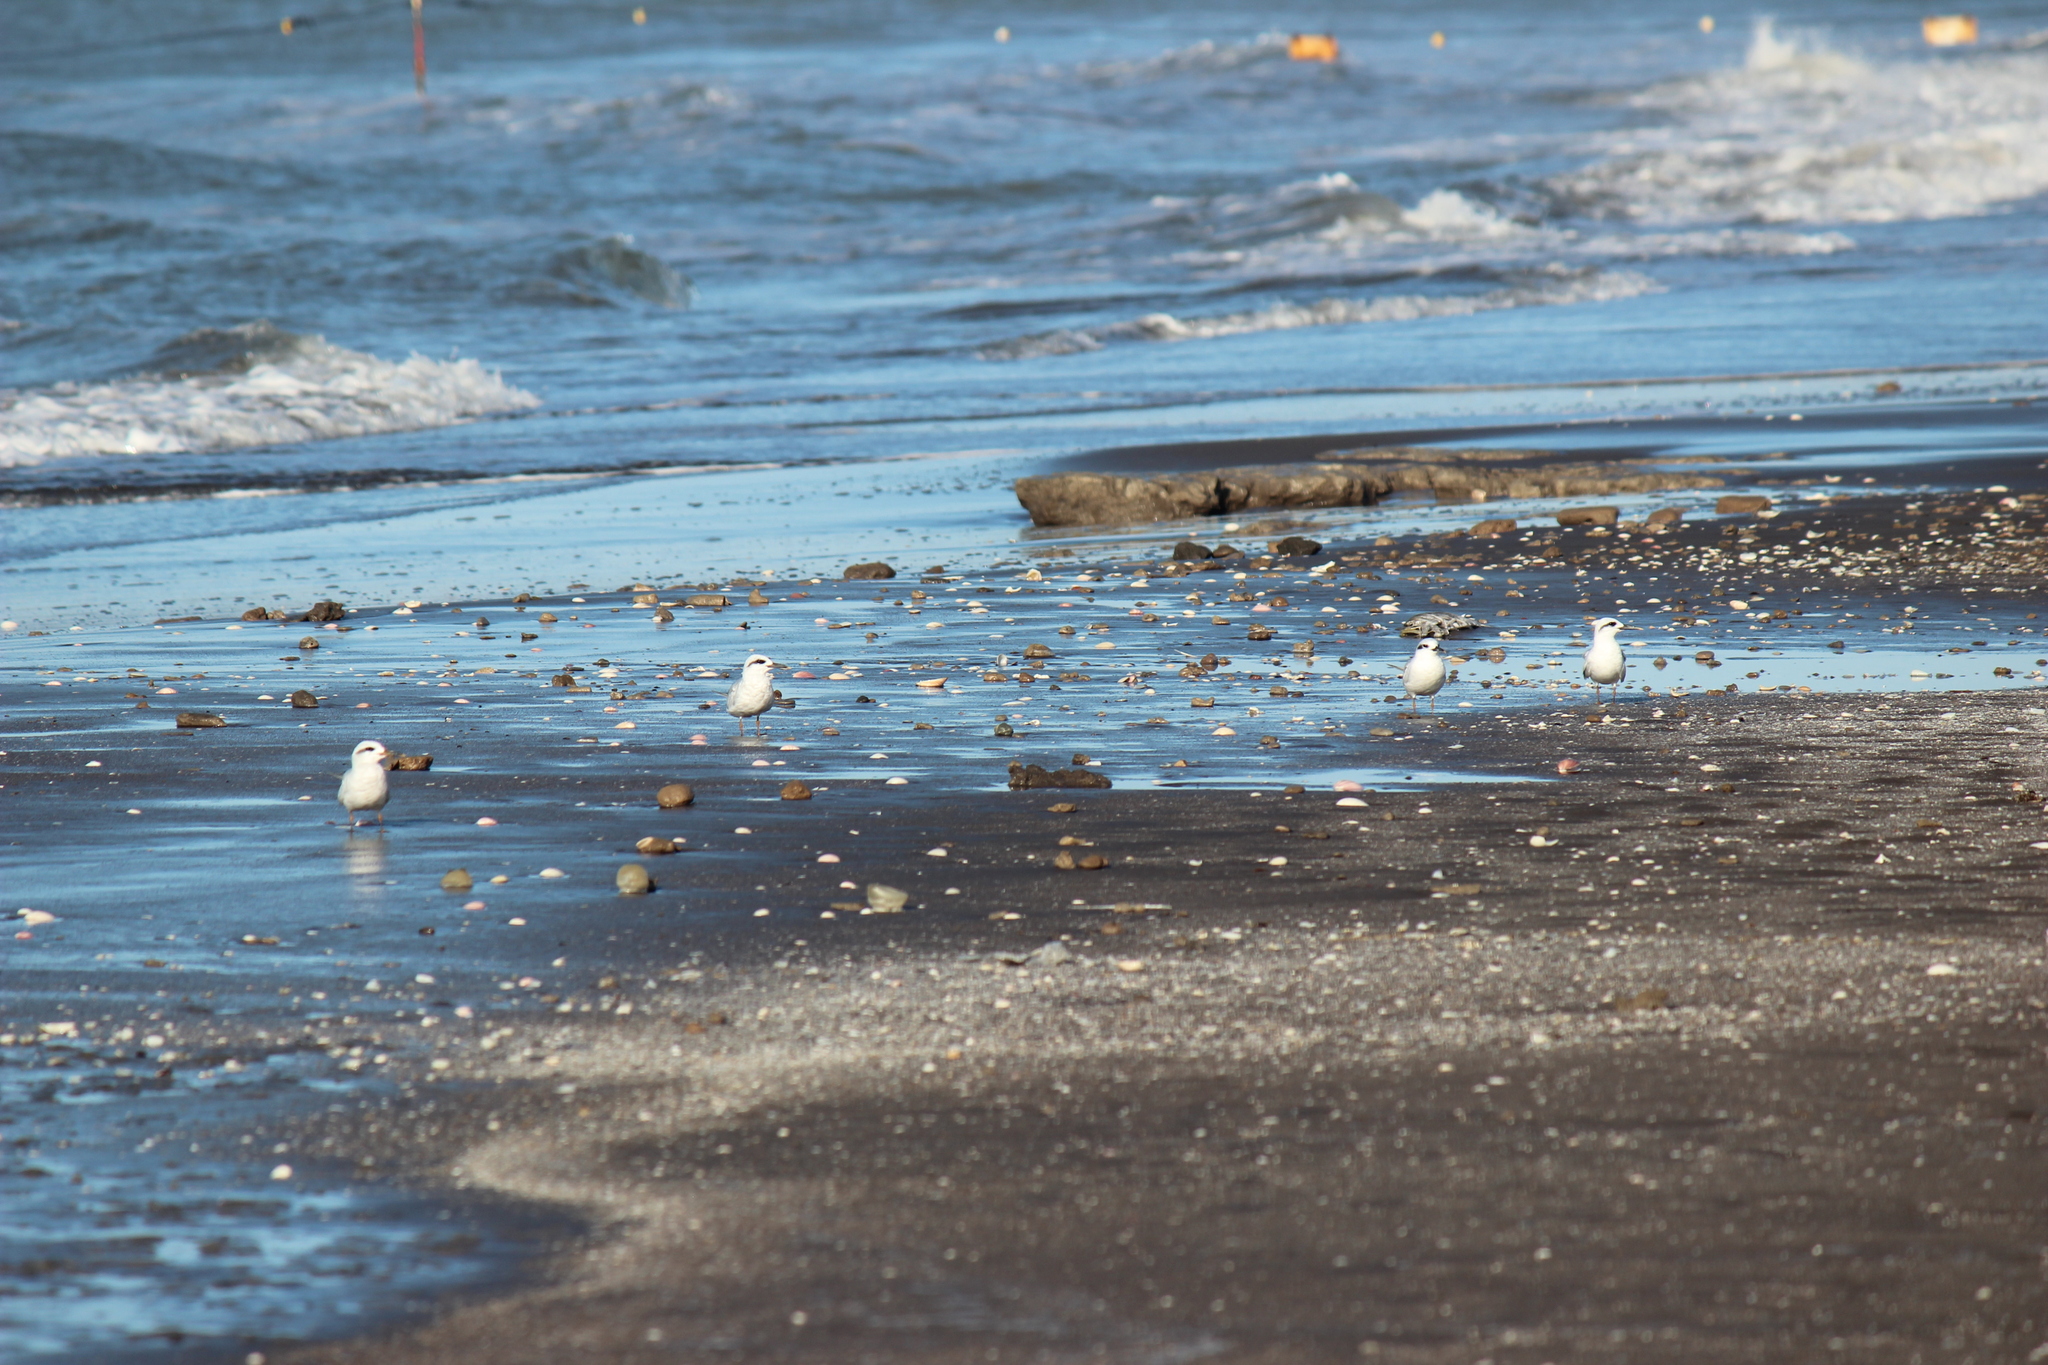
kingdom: Animalia
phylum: Chordata
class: Aves
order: Charadriiformes
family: Laridae
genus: Sterna
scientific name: Sterna trudeaui
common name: Snowy-crowned tern
